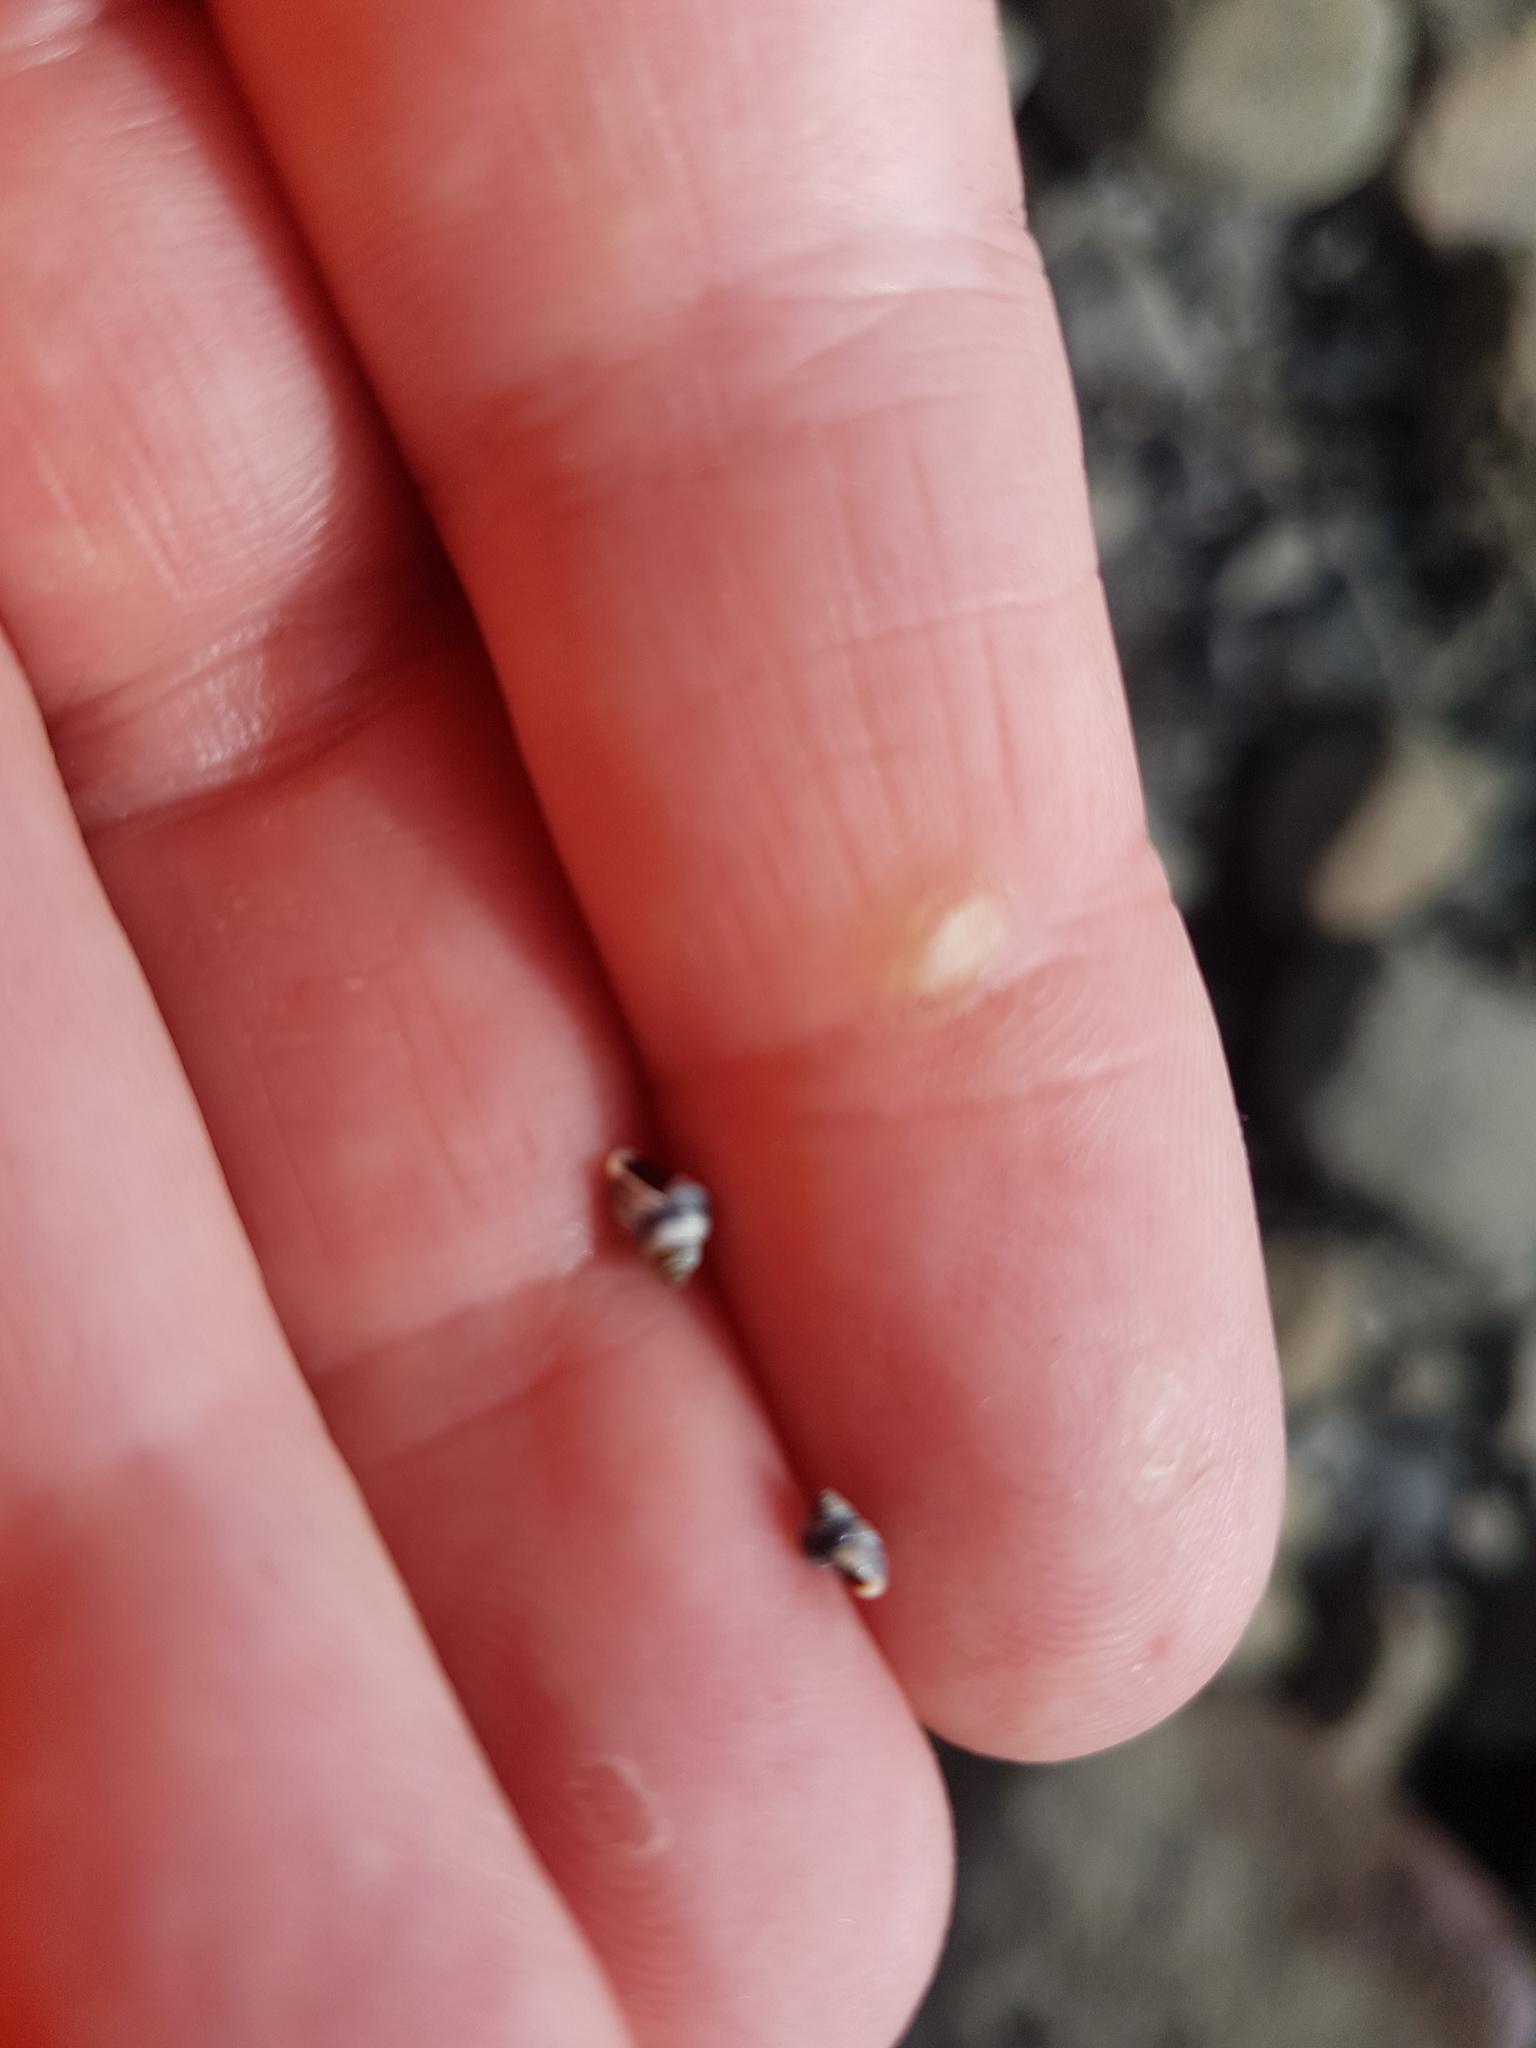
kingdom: Animalia
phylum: Mollusca
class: Gastropoda
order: Littorinimorpha
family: Littorinidae
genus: Austrolittorina
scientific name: Austrolittorina antipodum
